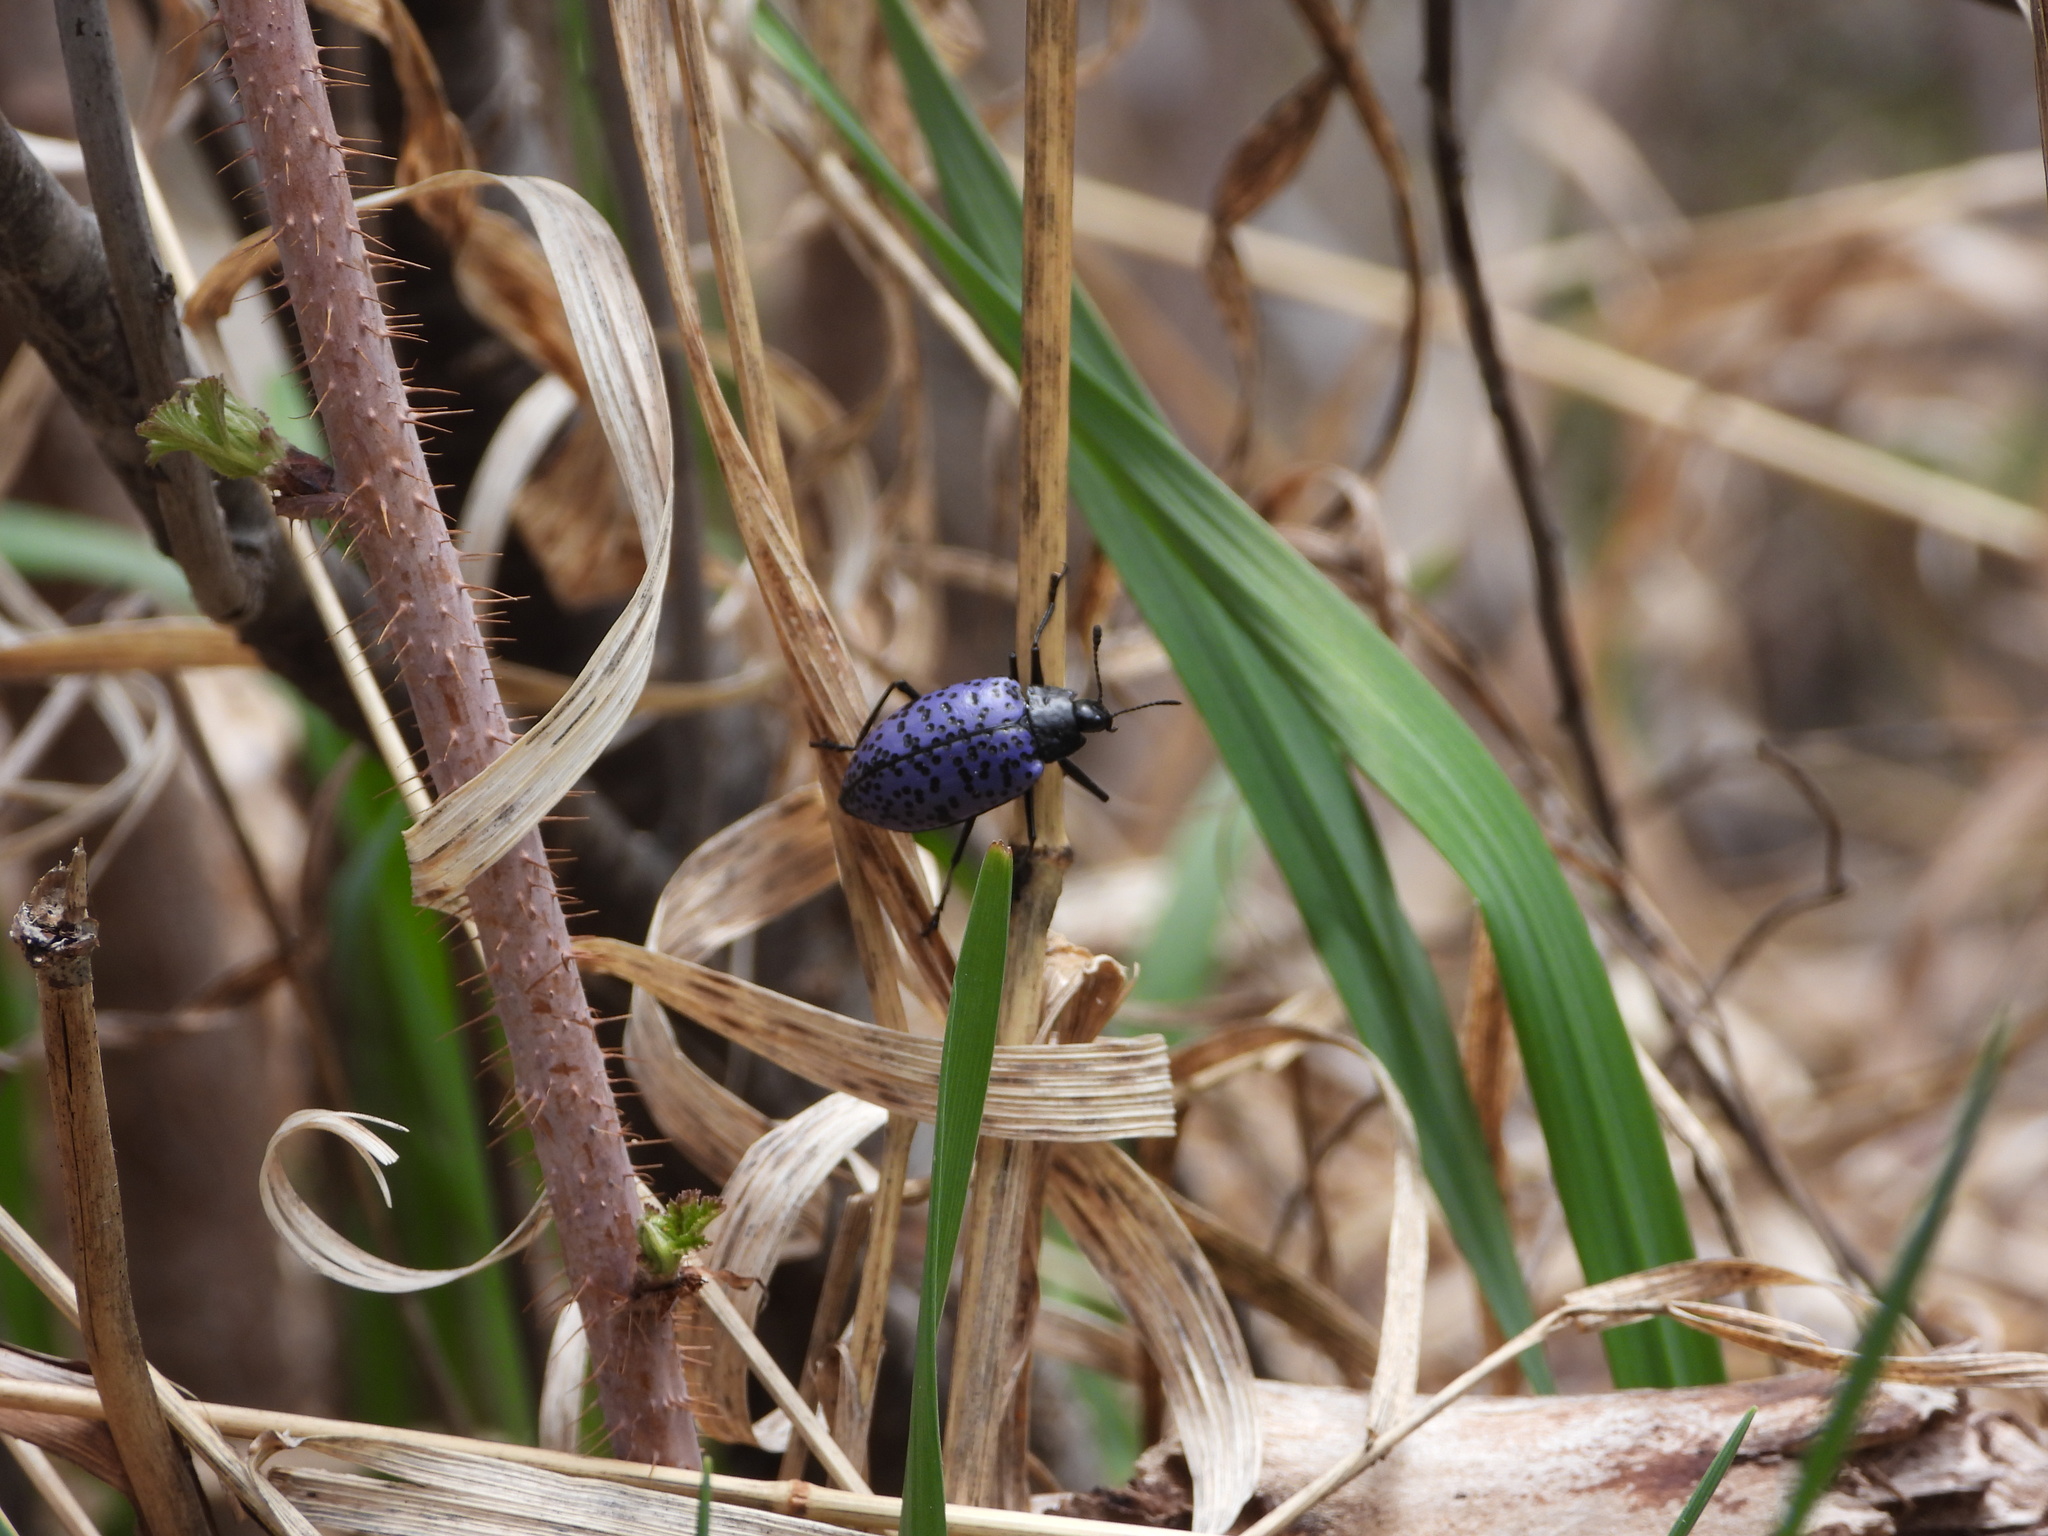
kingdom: Animalia
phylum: Arthropoda
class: Insecta
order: Coleoptera
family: Erotylidae
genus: Gibbifer
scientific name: Gibbifer californicus
